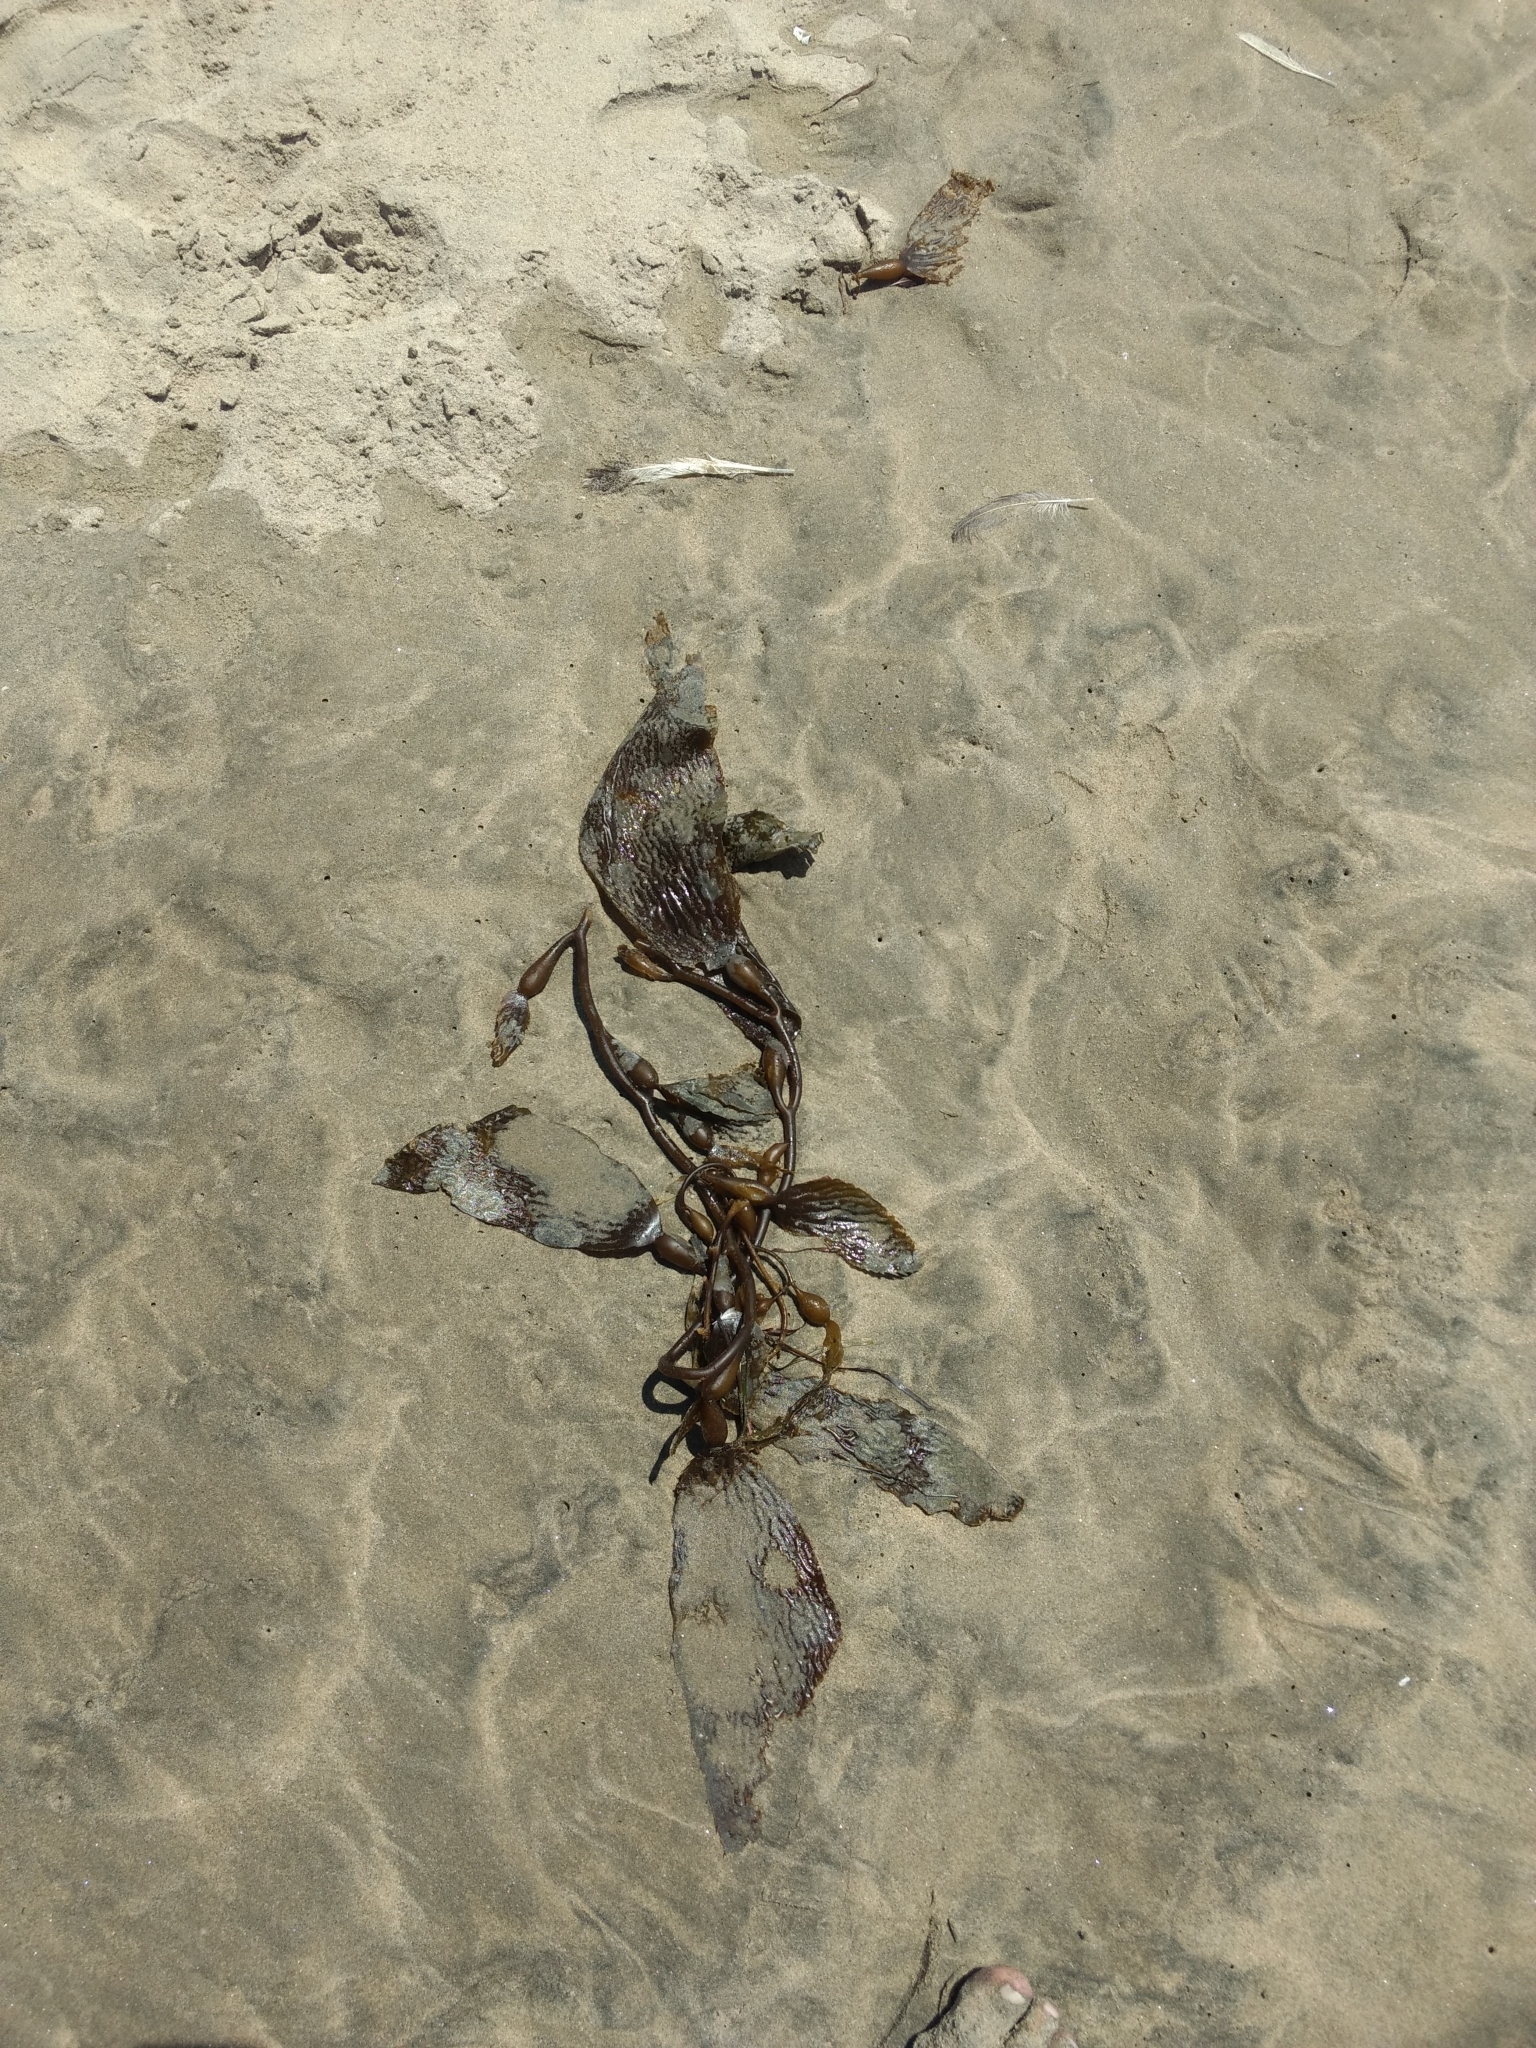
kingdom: Chromista
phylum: Ochrophyta
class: Phaeophyceae
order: Laminariales
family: Laminariaceae
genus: Macrocystis
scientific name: Macrocystis pyrifera
